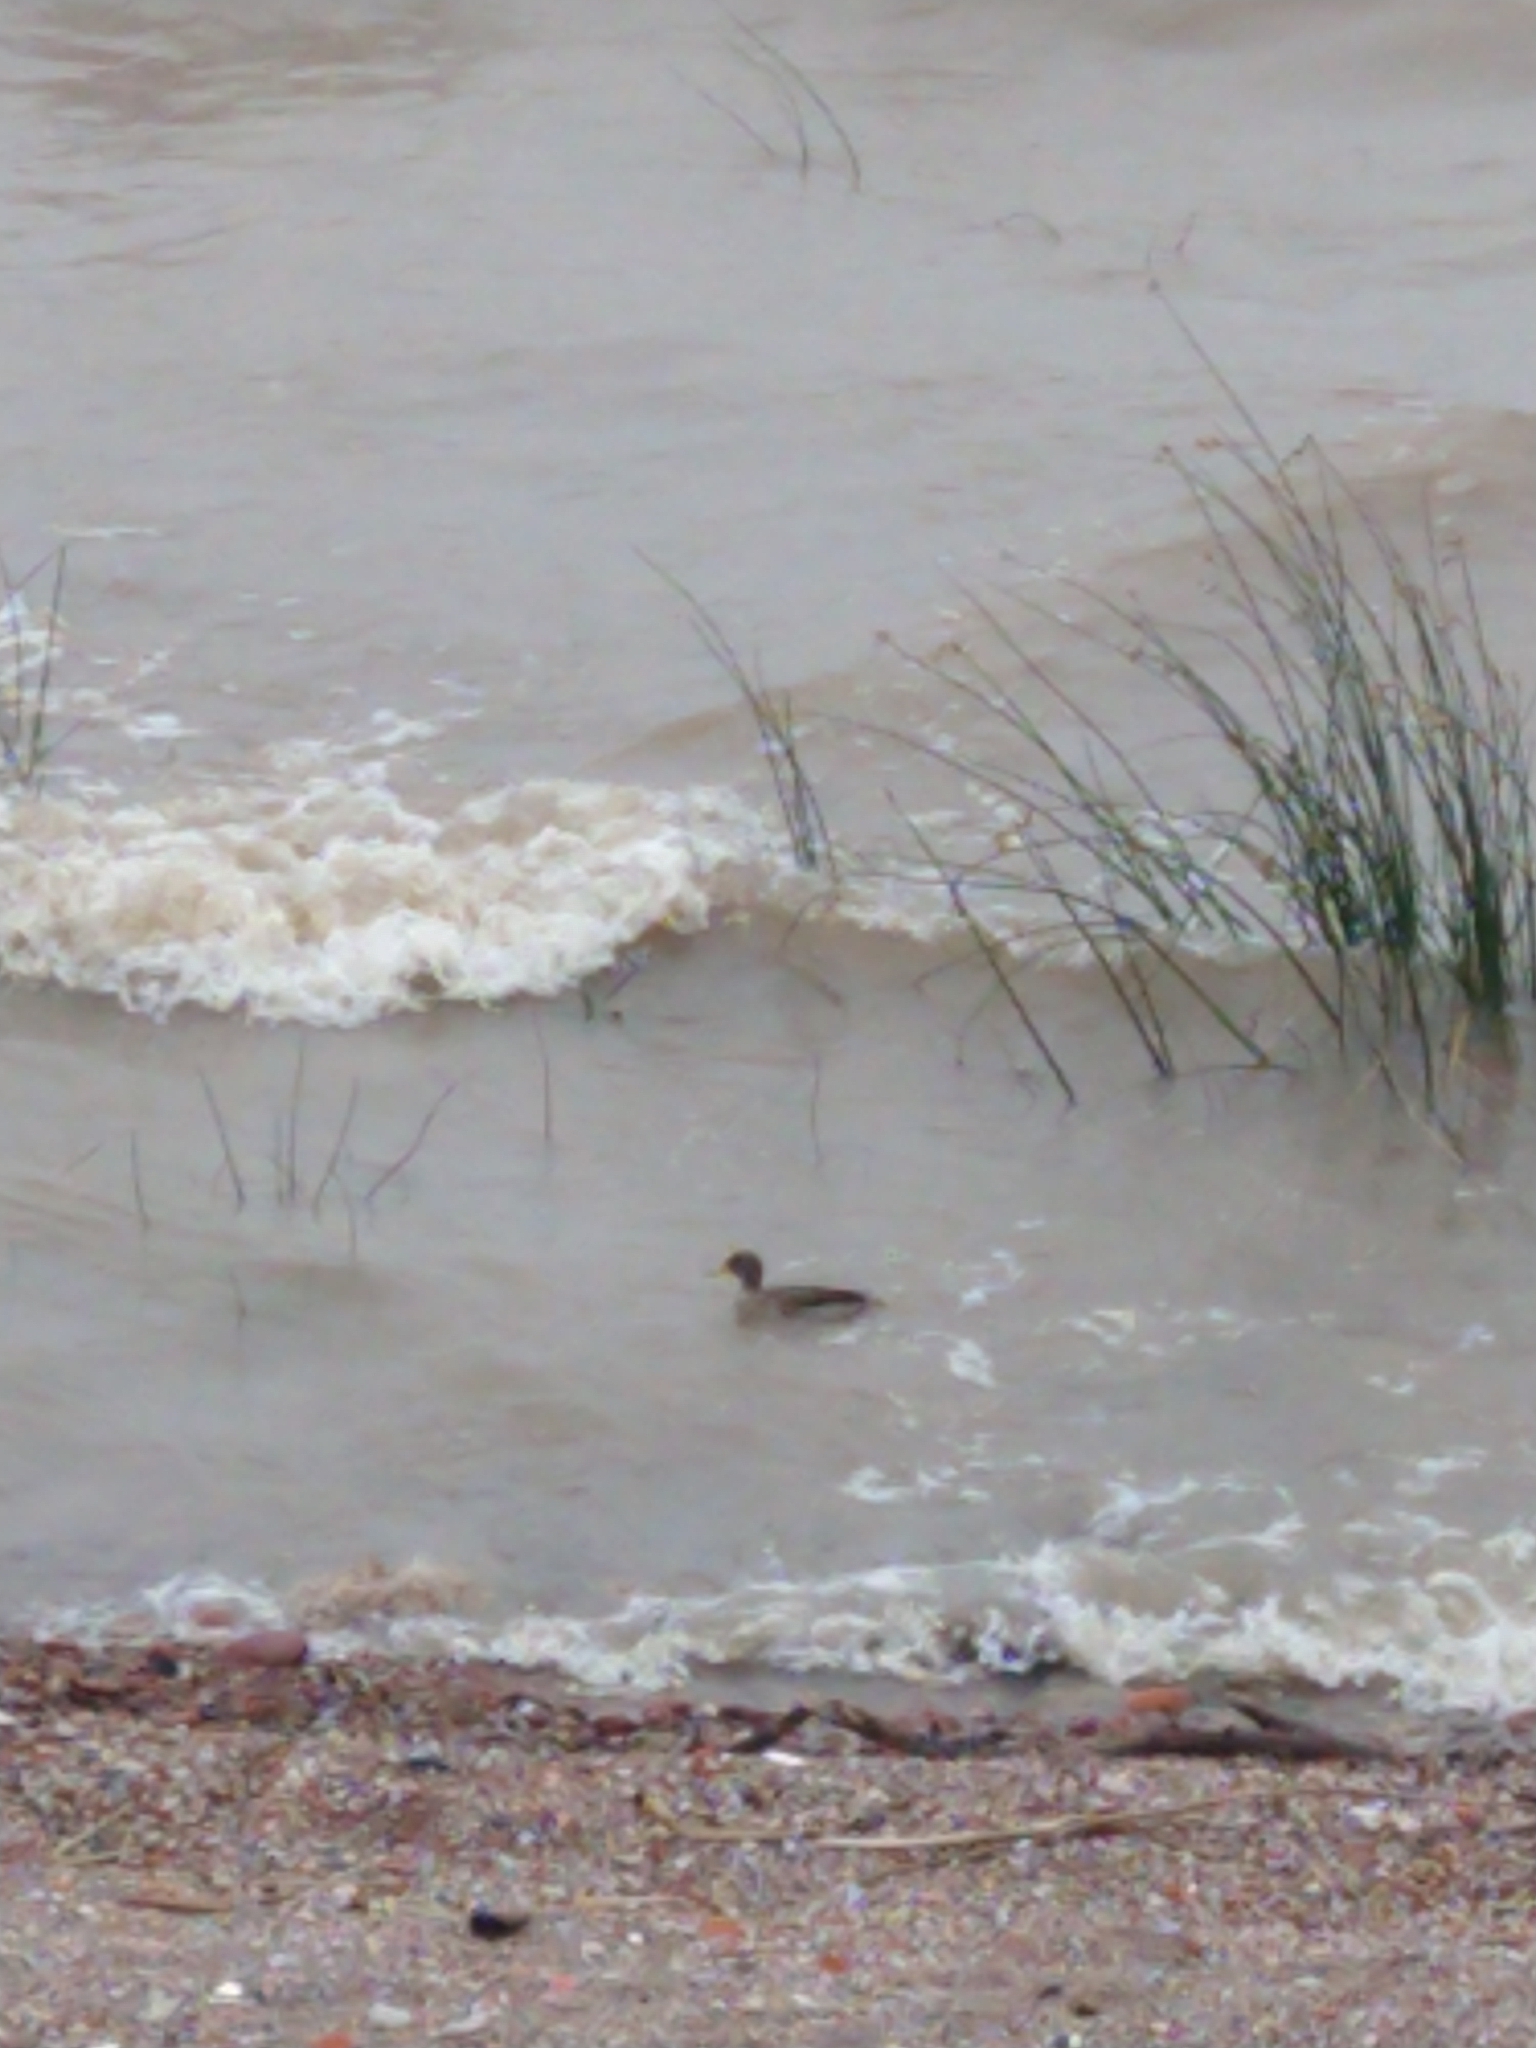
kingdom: Animalia
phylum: Chordata
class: Aves
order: Anseriformes
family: Anatidae
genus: Anas
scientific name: Anas flavirostris
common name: Yellow-billed teal
